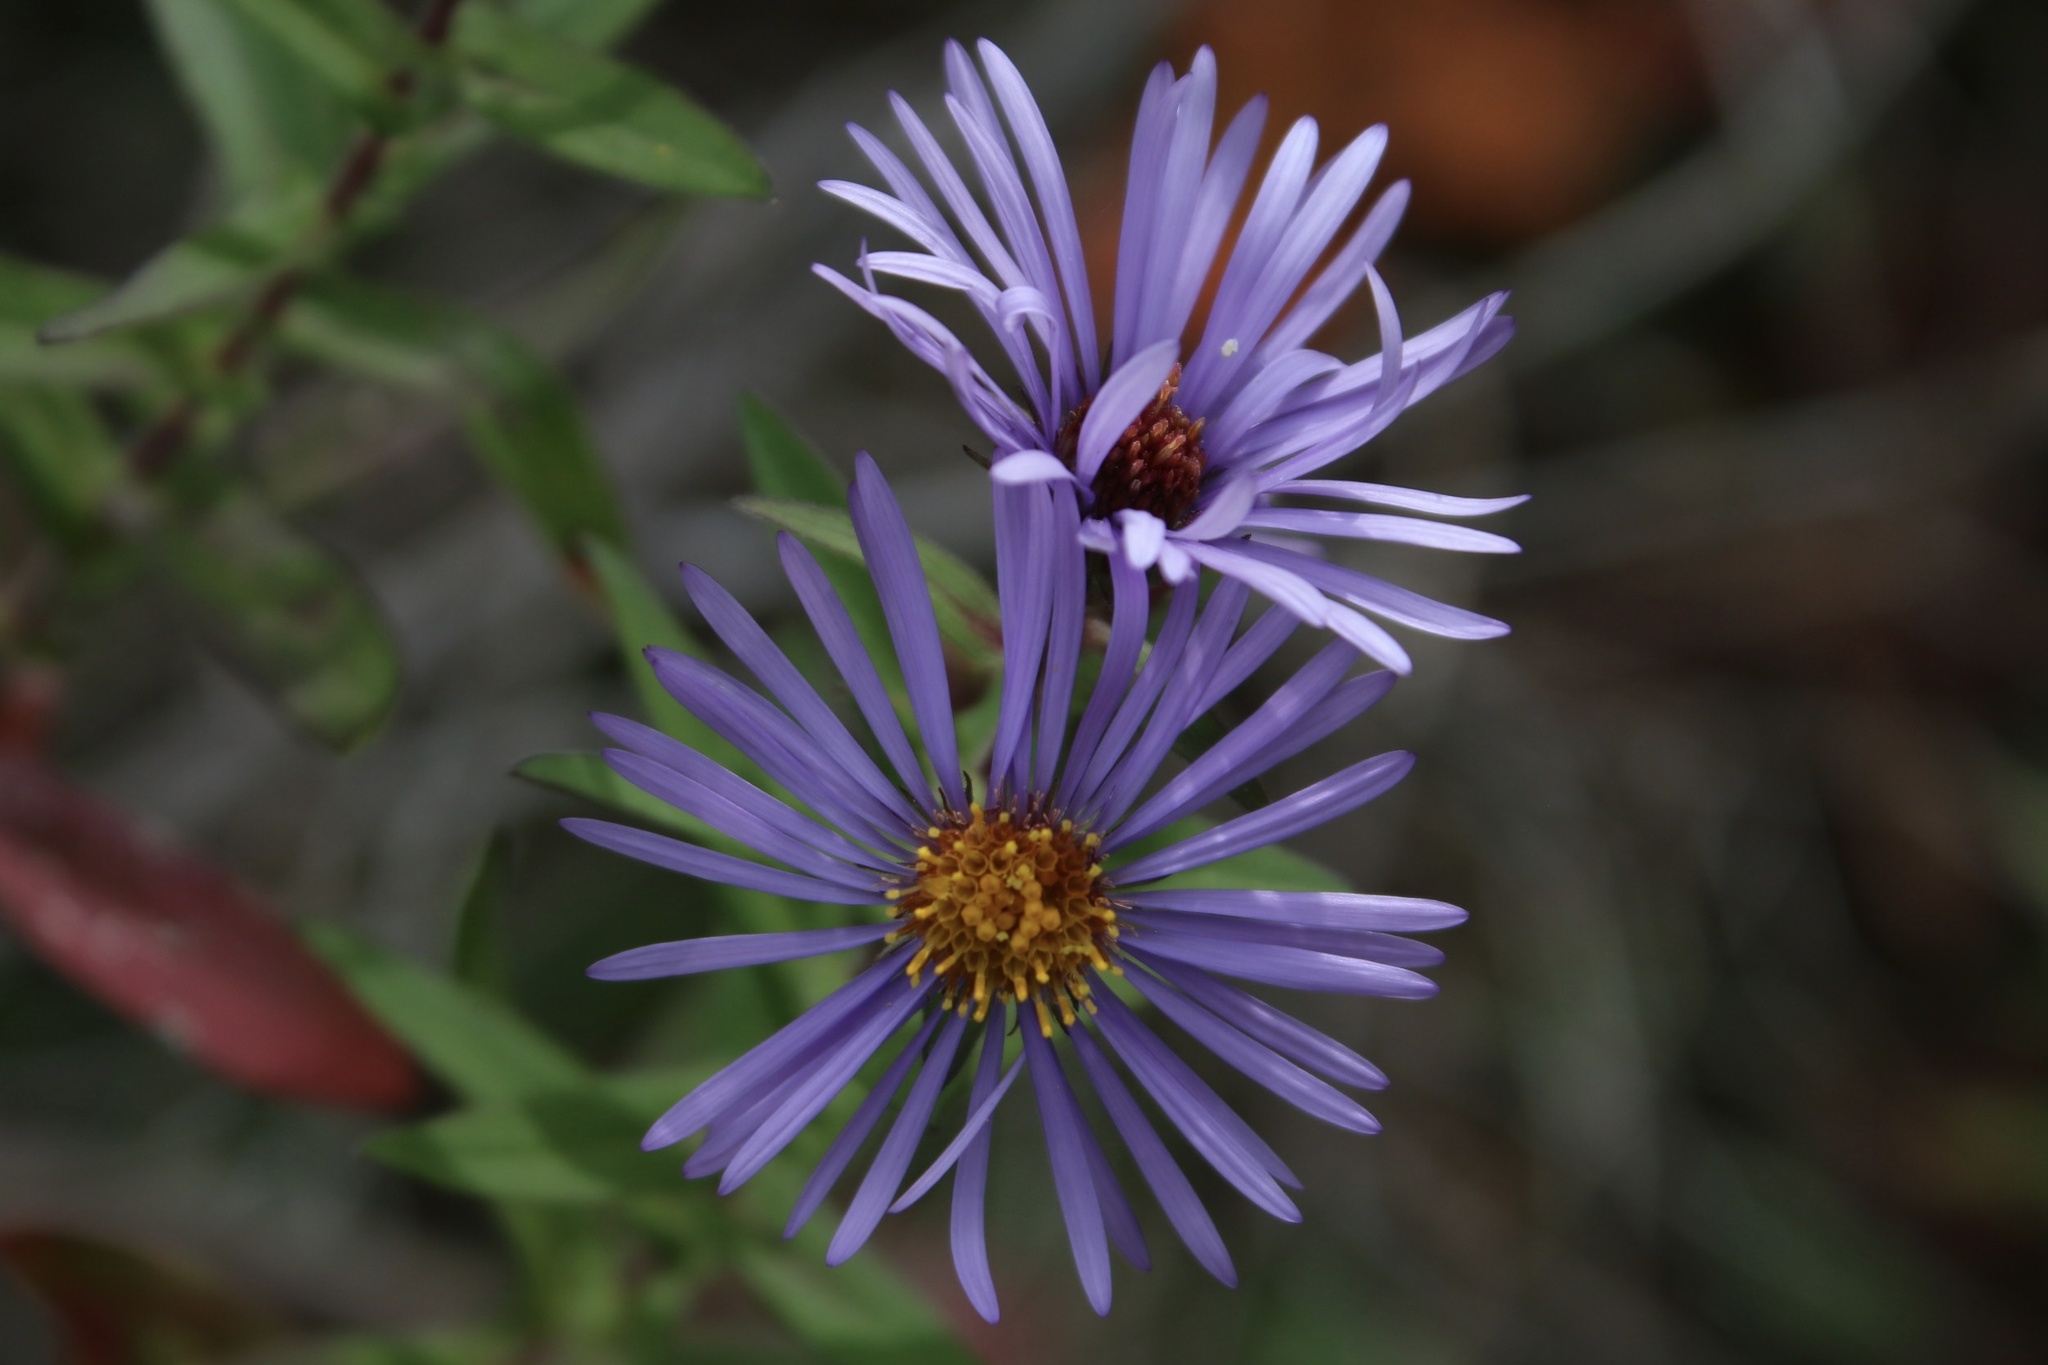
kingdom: Plantae
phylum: Tracheophyta
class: Magnoliopsida
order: Asterales
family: Asteraceae
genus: Symphyotrichum
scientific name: Symphyotrichum novae-angliae
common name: Michaelmas daisy
